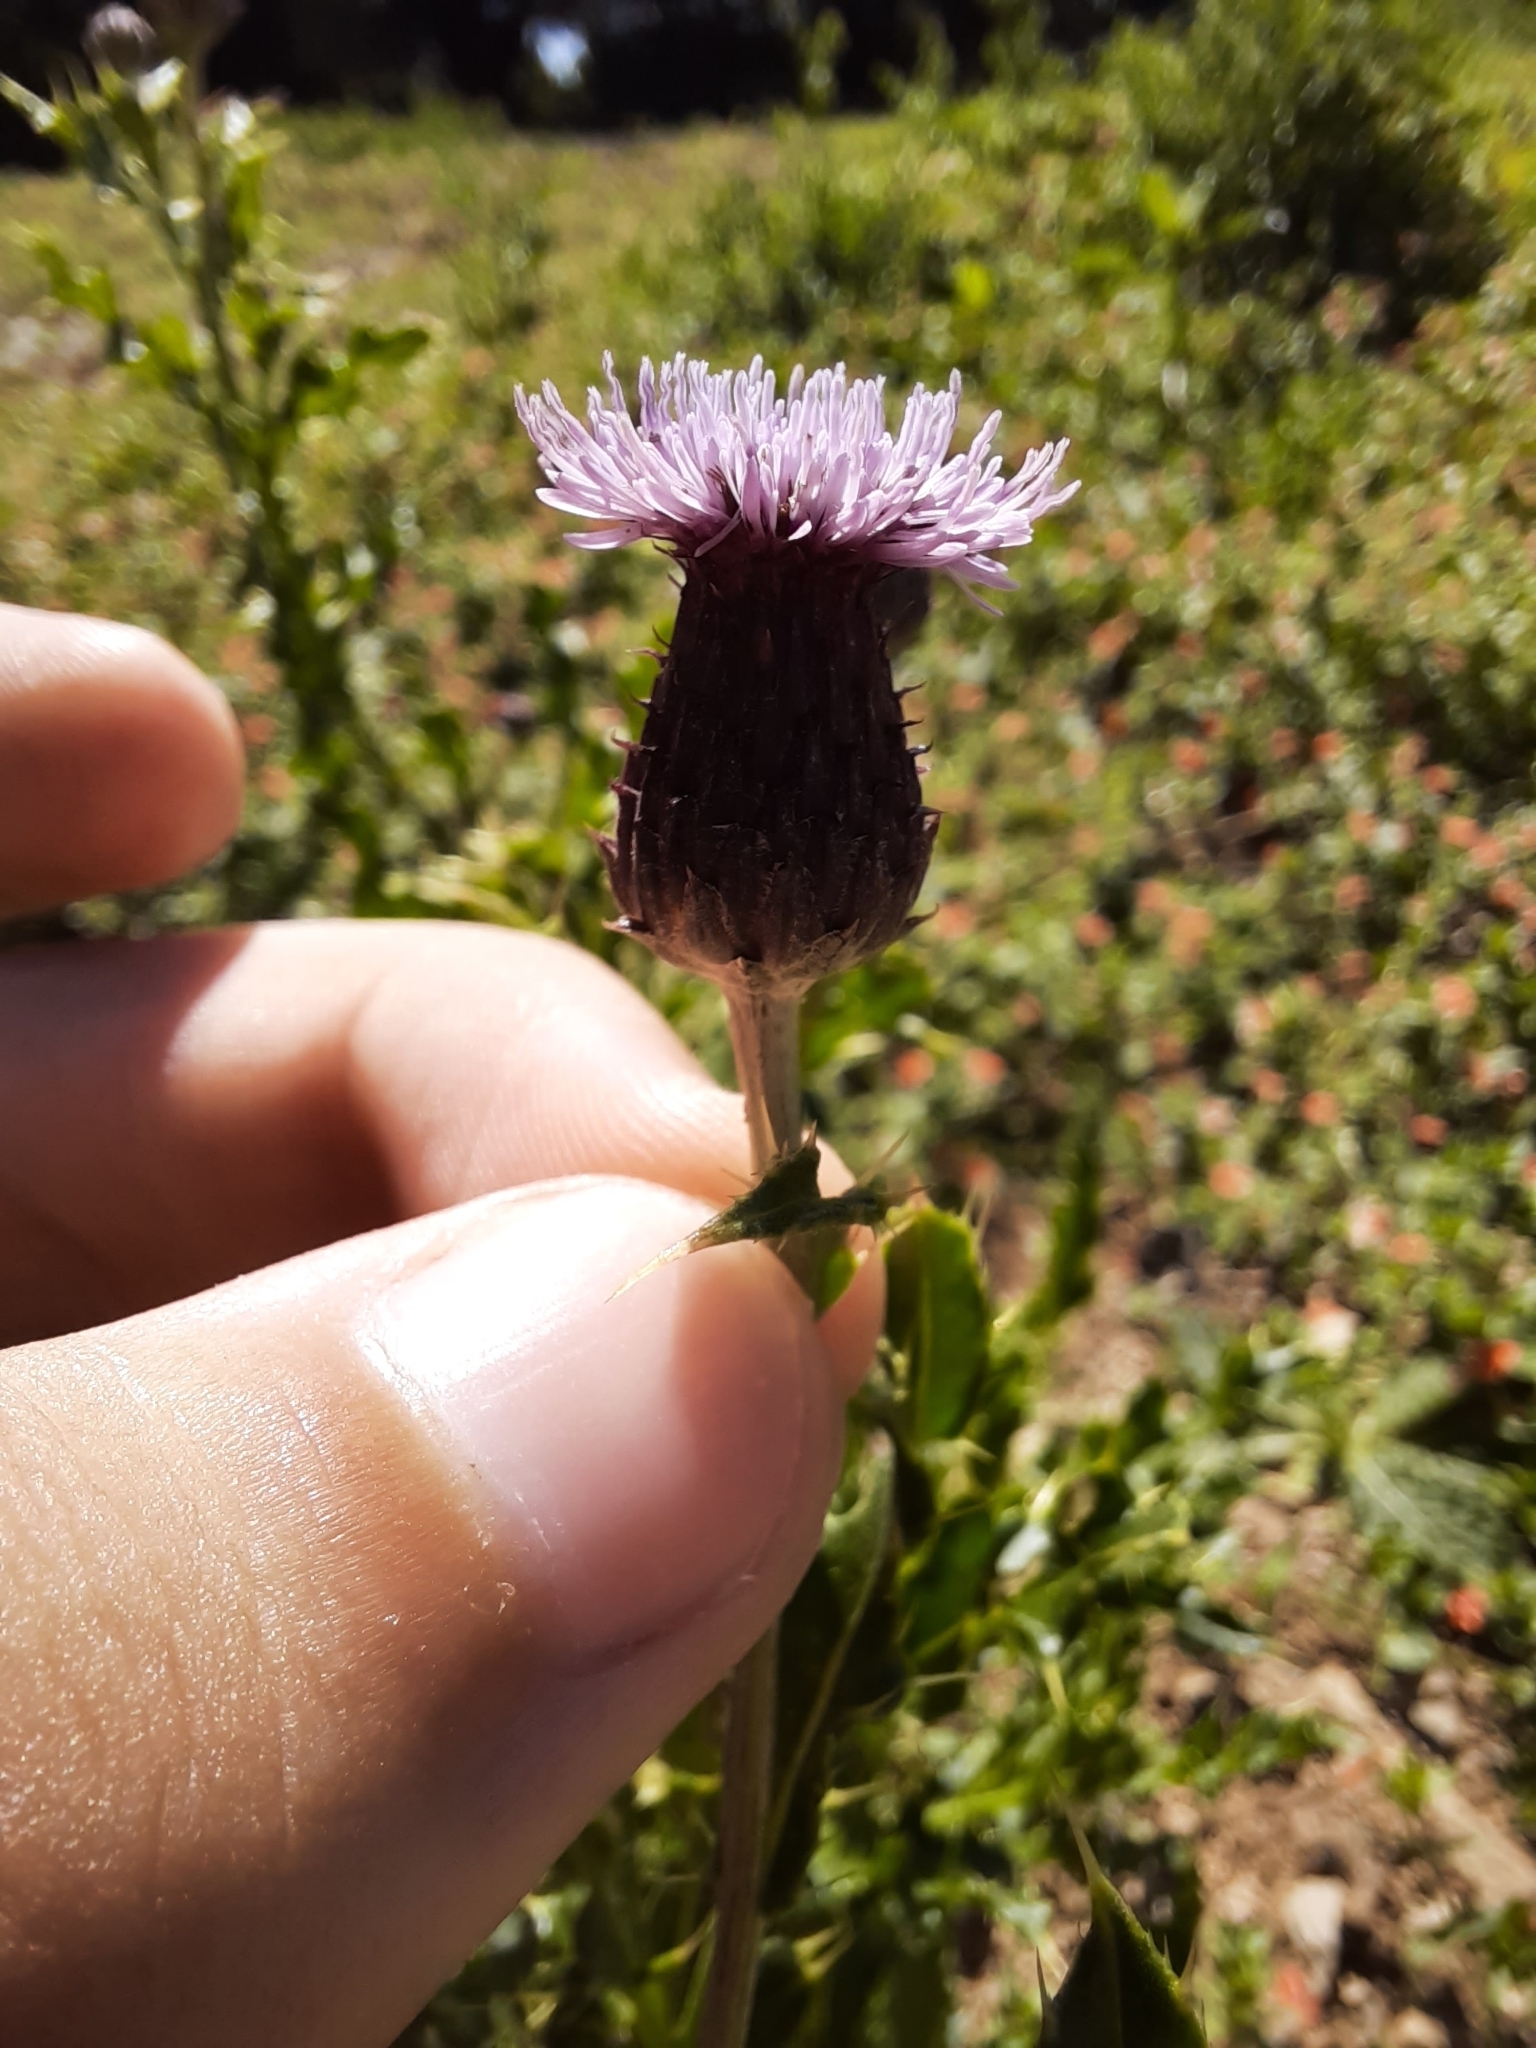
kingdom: Plantae
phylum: Tracheophyta
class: Magnoliopsida
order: Asterales
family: Asteraceae
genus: Cirsium
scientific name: Cirsium arvense
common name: Creeping thistle
